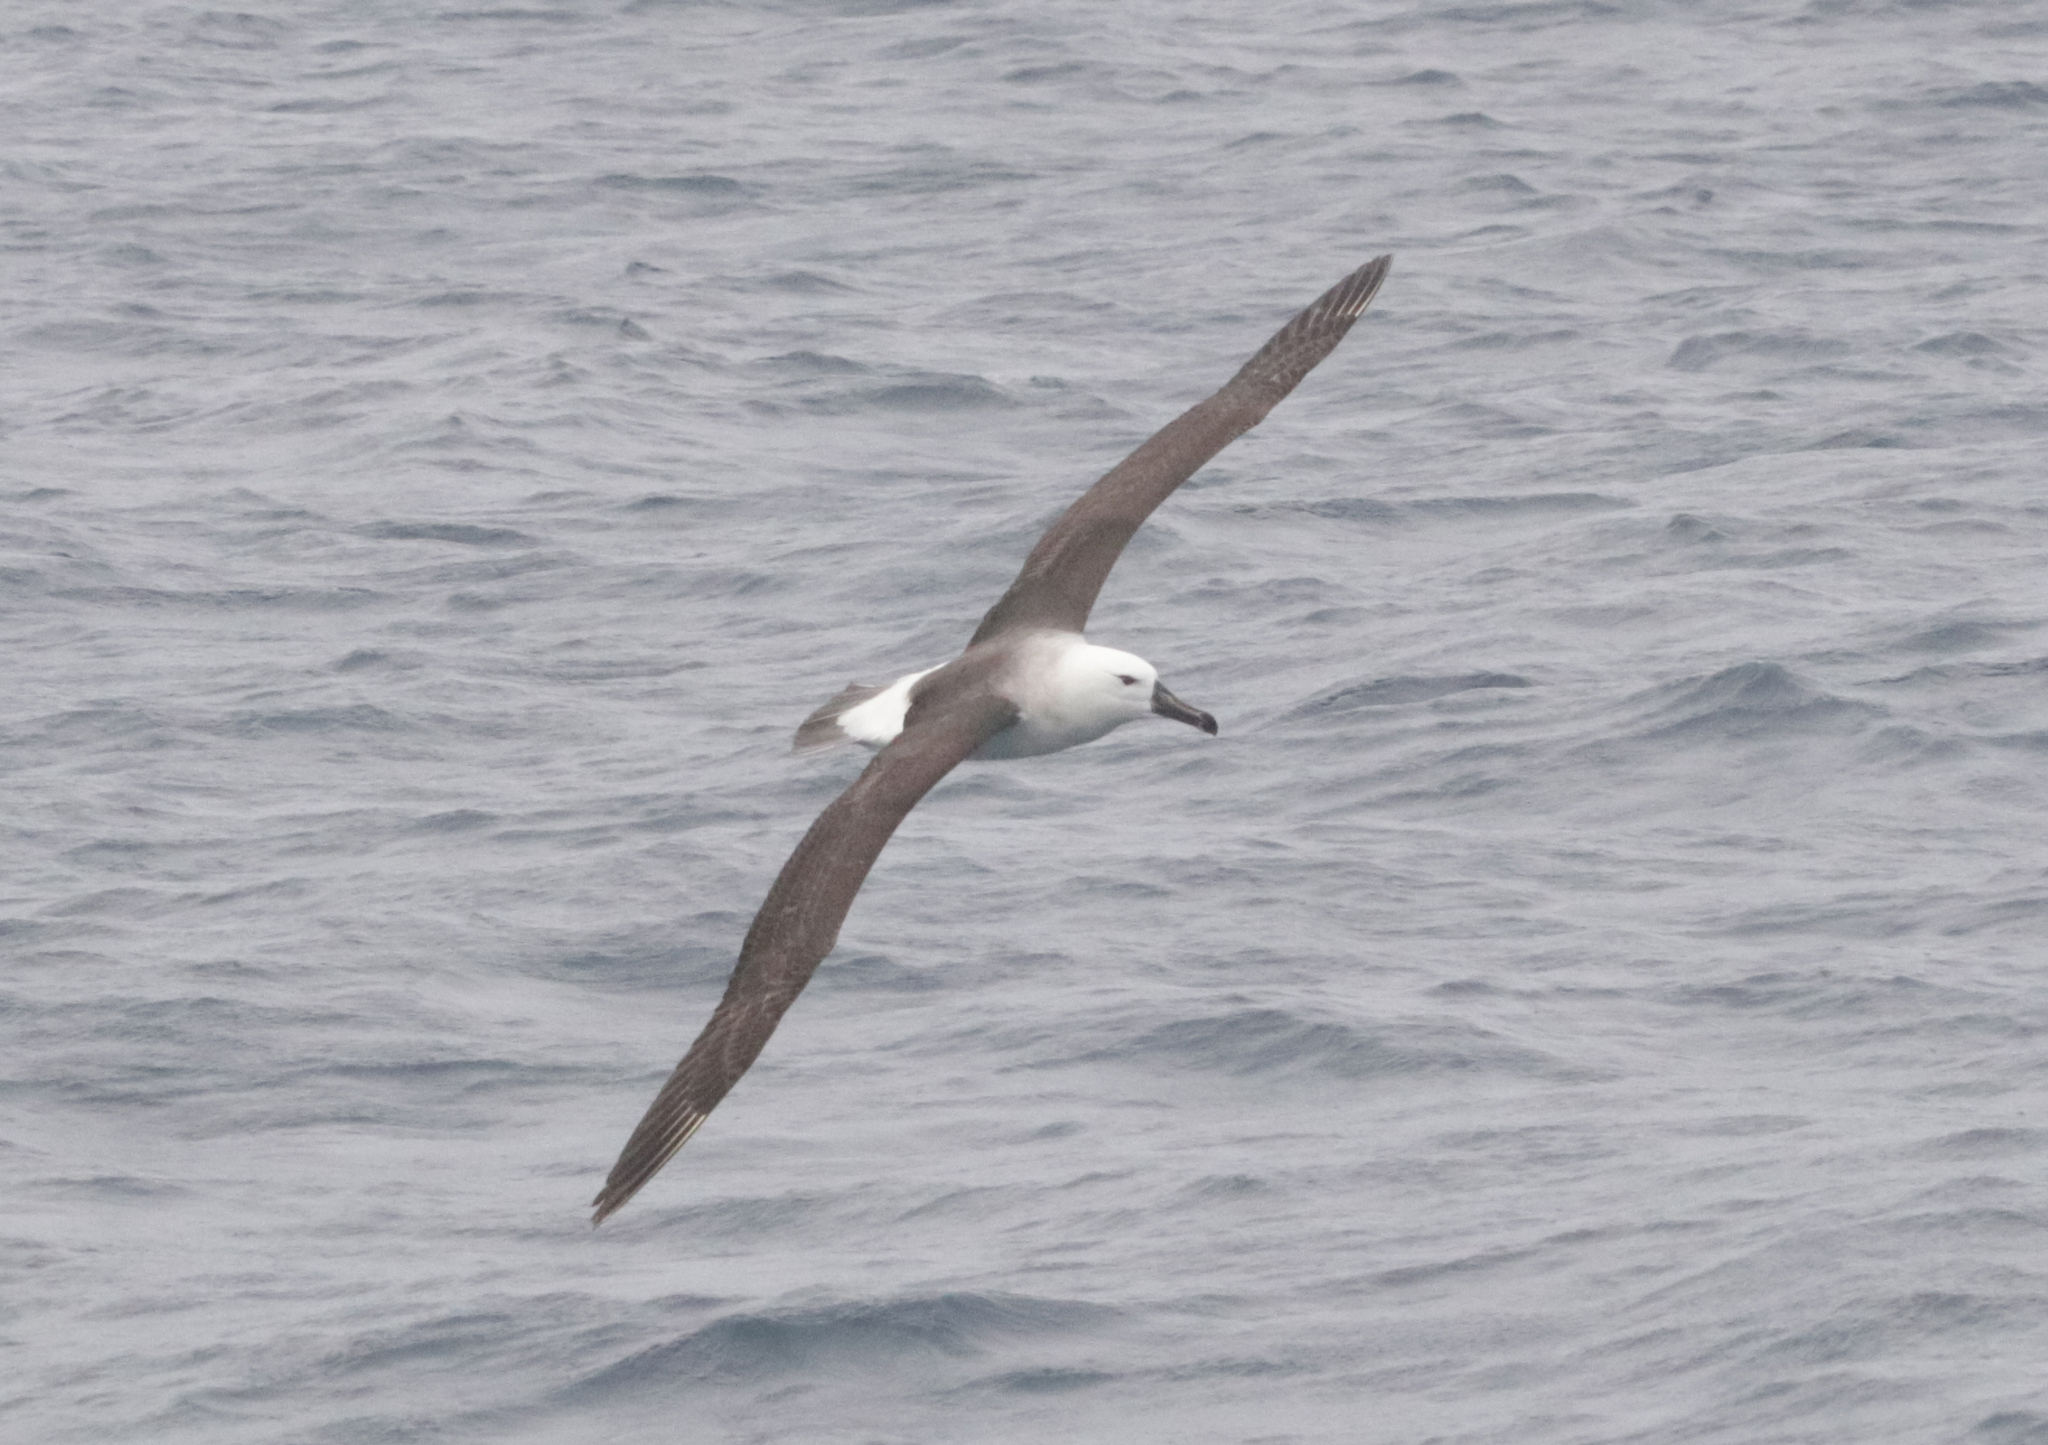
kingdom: Animalia
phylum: Chordata
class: Aves
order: Procellariiformes
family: Diomedeidae
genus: Thalassarche
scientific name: Thalassarche cauta
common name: Shy albatross
